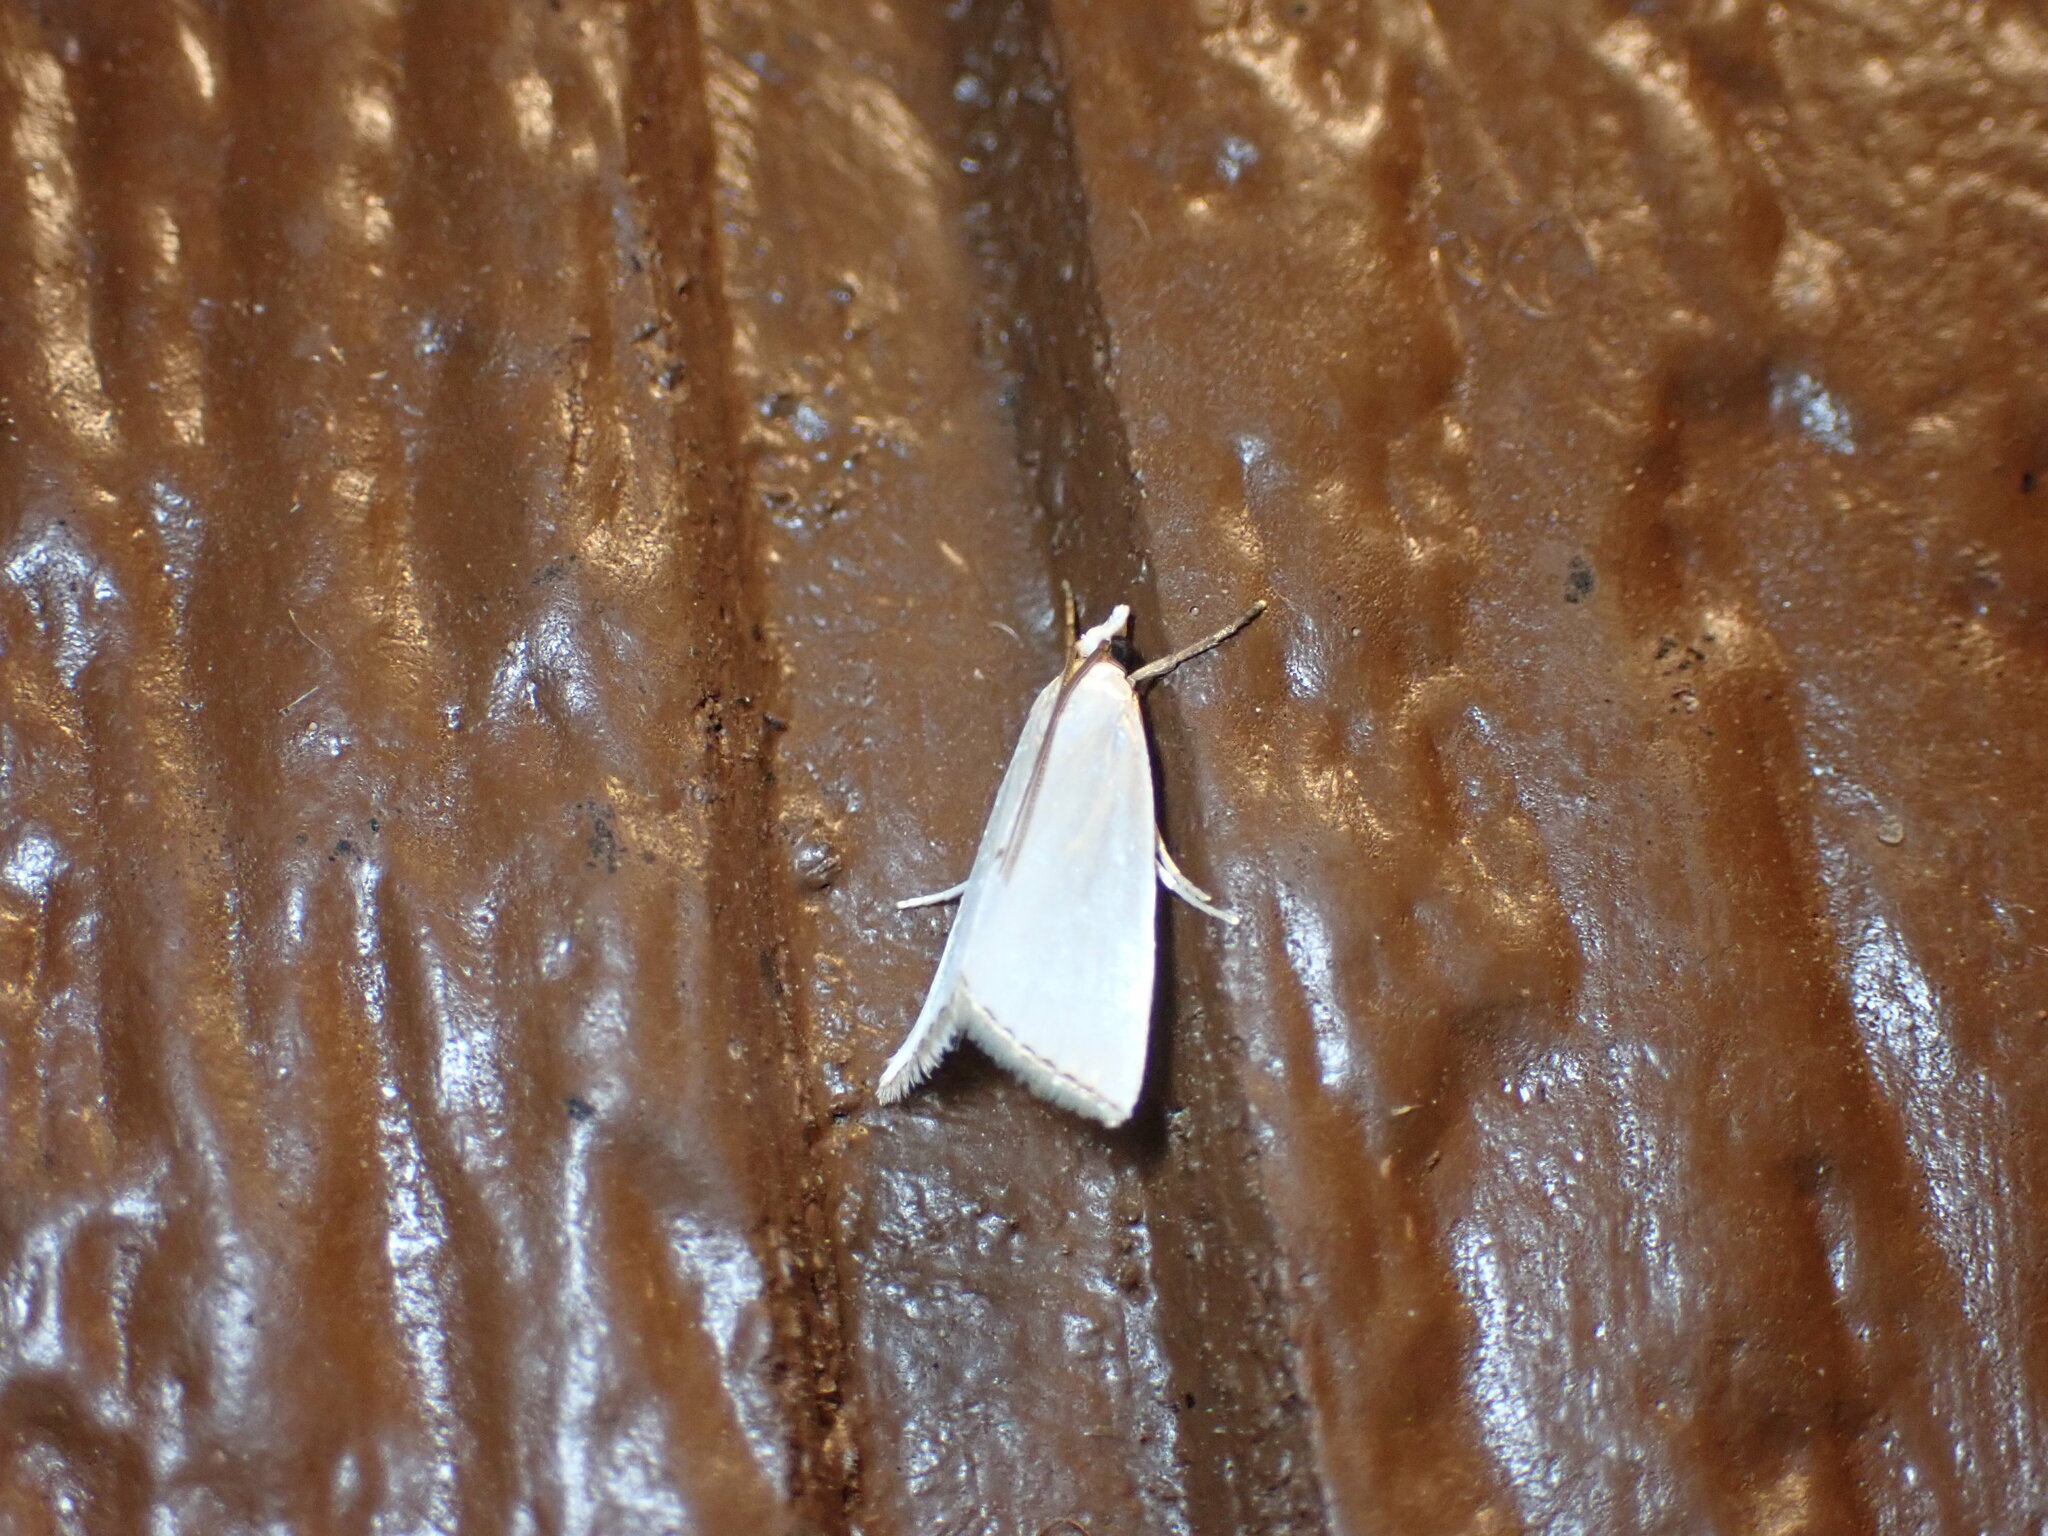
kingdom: Animalia
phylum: Arthropoda
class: Insecta
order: Lepidoptera
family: Crambidae
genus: Argyria
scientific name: Argyria nivalis
